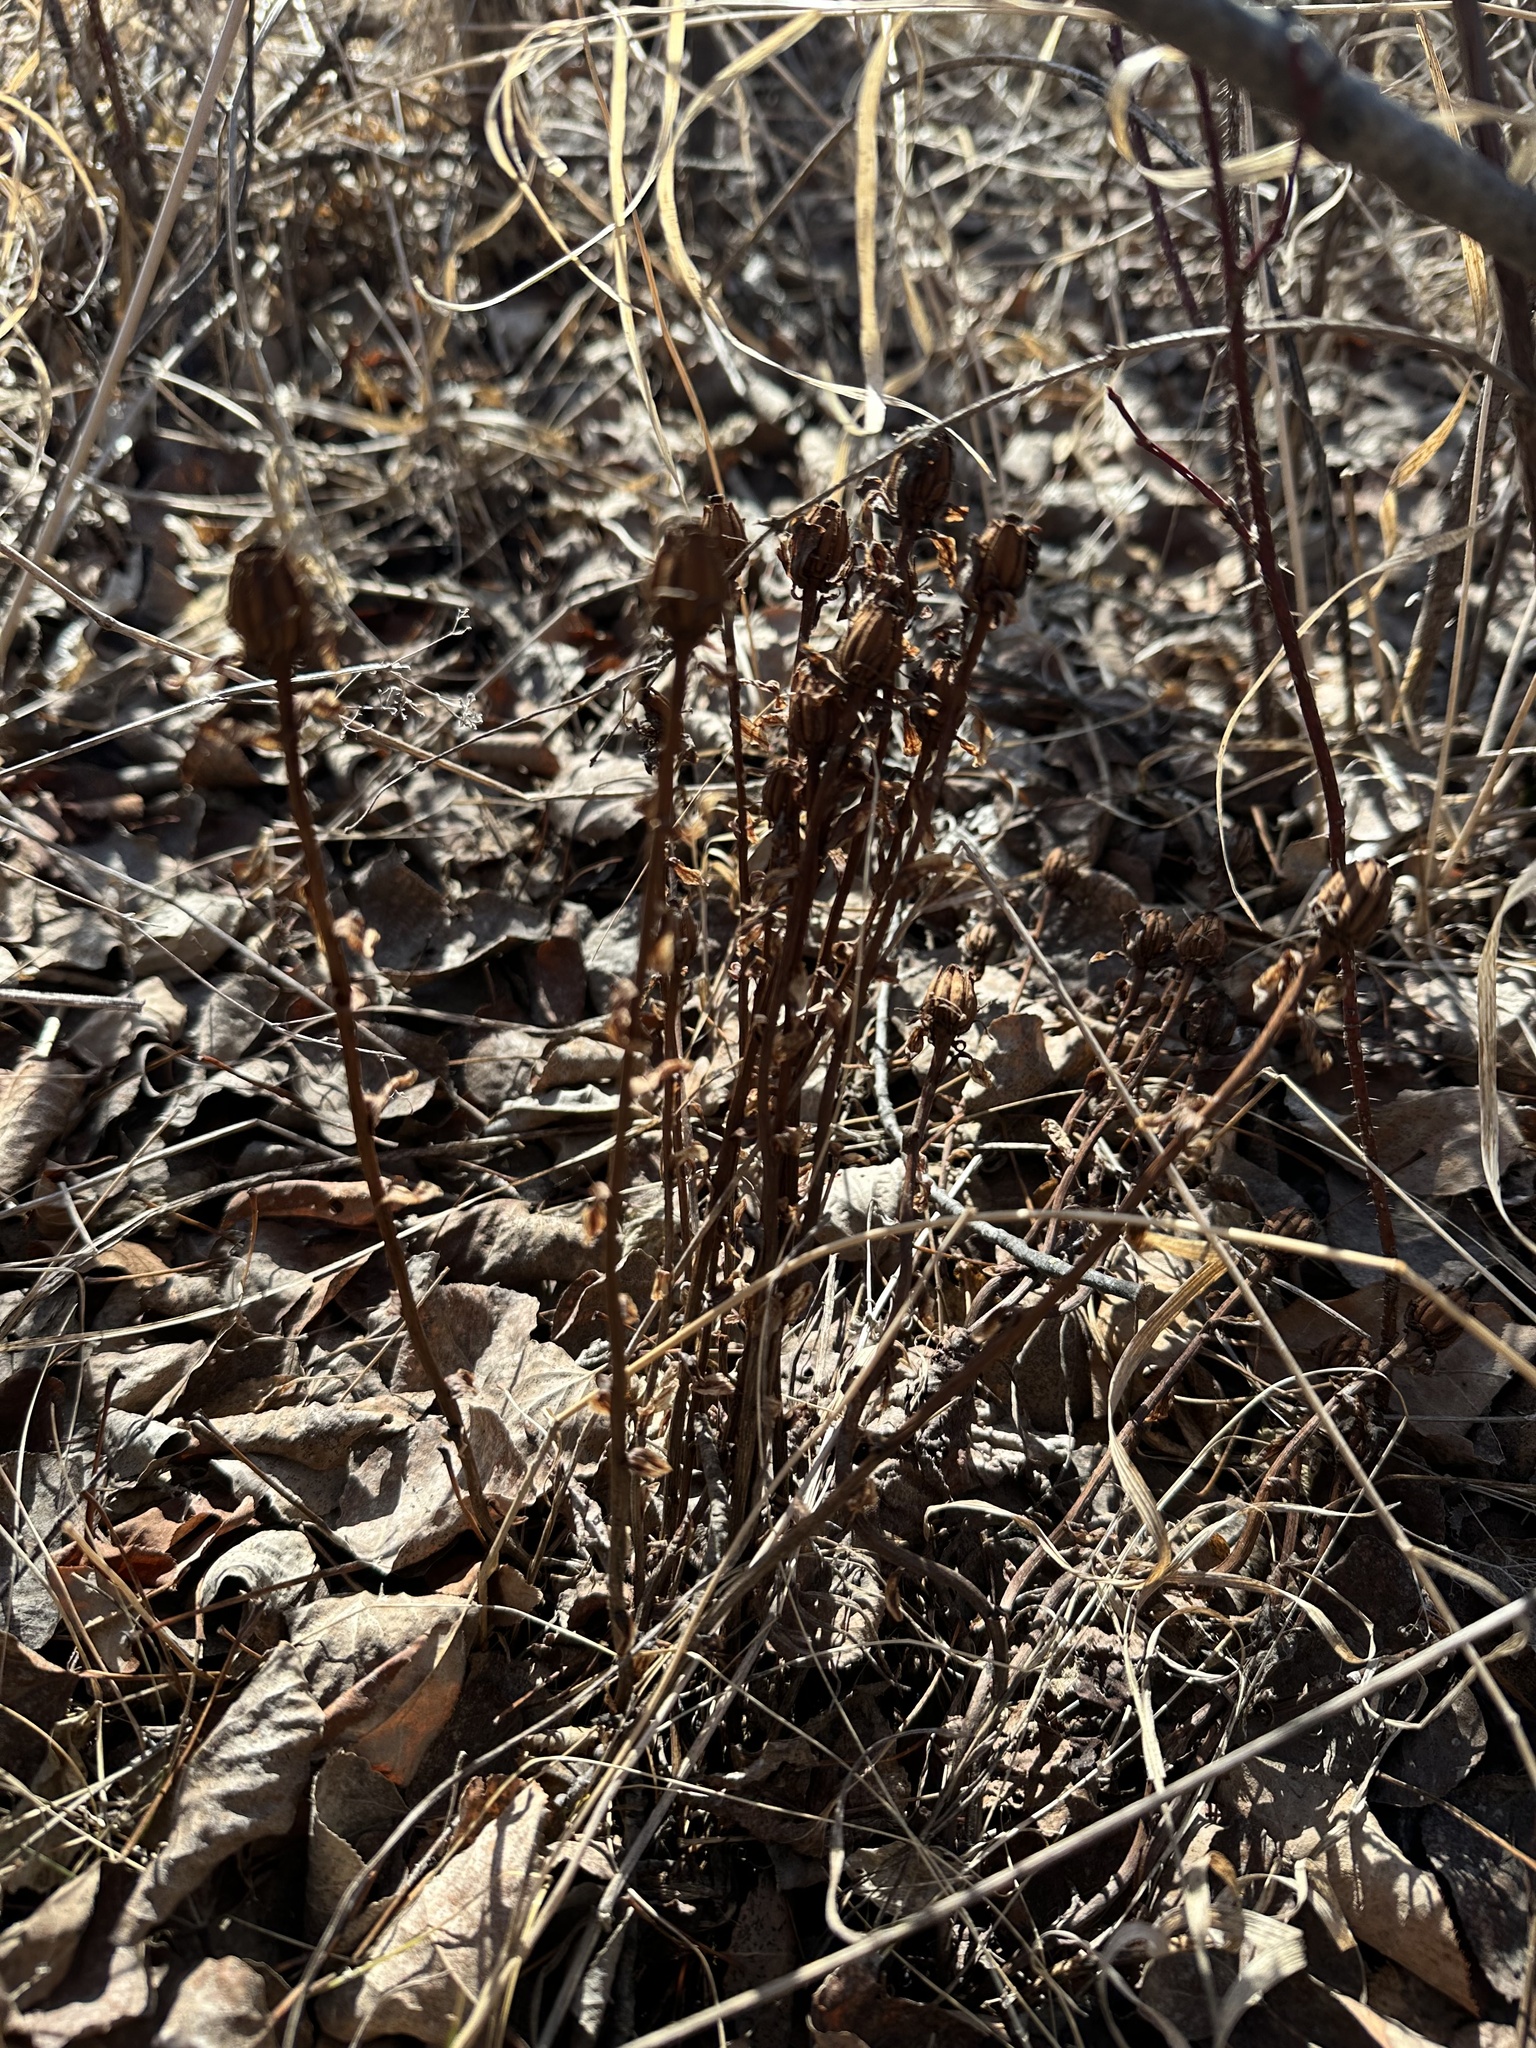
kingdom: Plantae
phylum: Tracheophyta
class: Magnoliopsida
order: Ericales
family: Ericaceae
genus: Monotropa
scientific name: Monotropa uniflora
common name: Convulsion root
